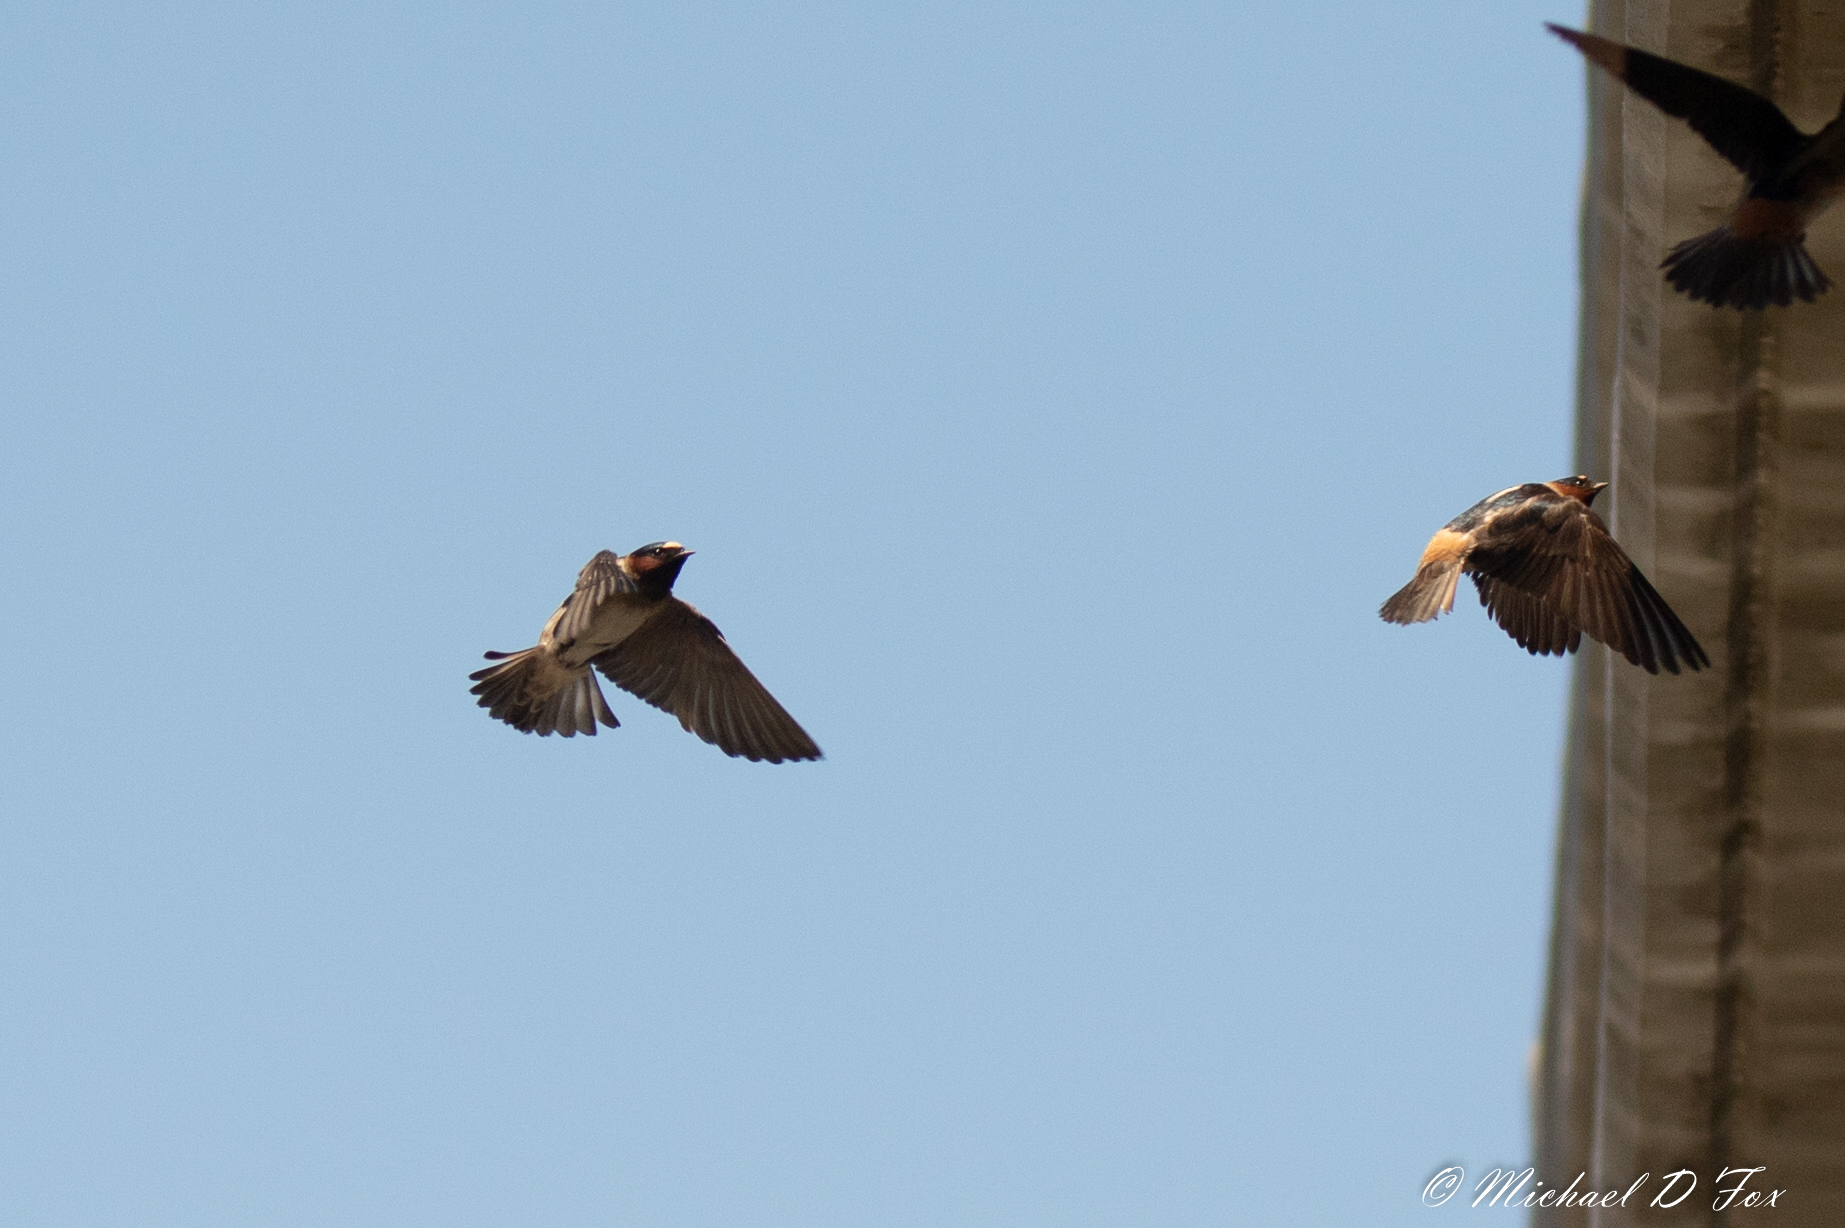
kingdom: Animalia
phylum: Chordata
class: Aves
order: Passeriformes
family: Hirundinidae
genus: Petrochelidon
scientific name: Petrochelidon pyrrhonota
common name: American cliff swallow
